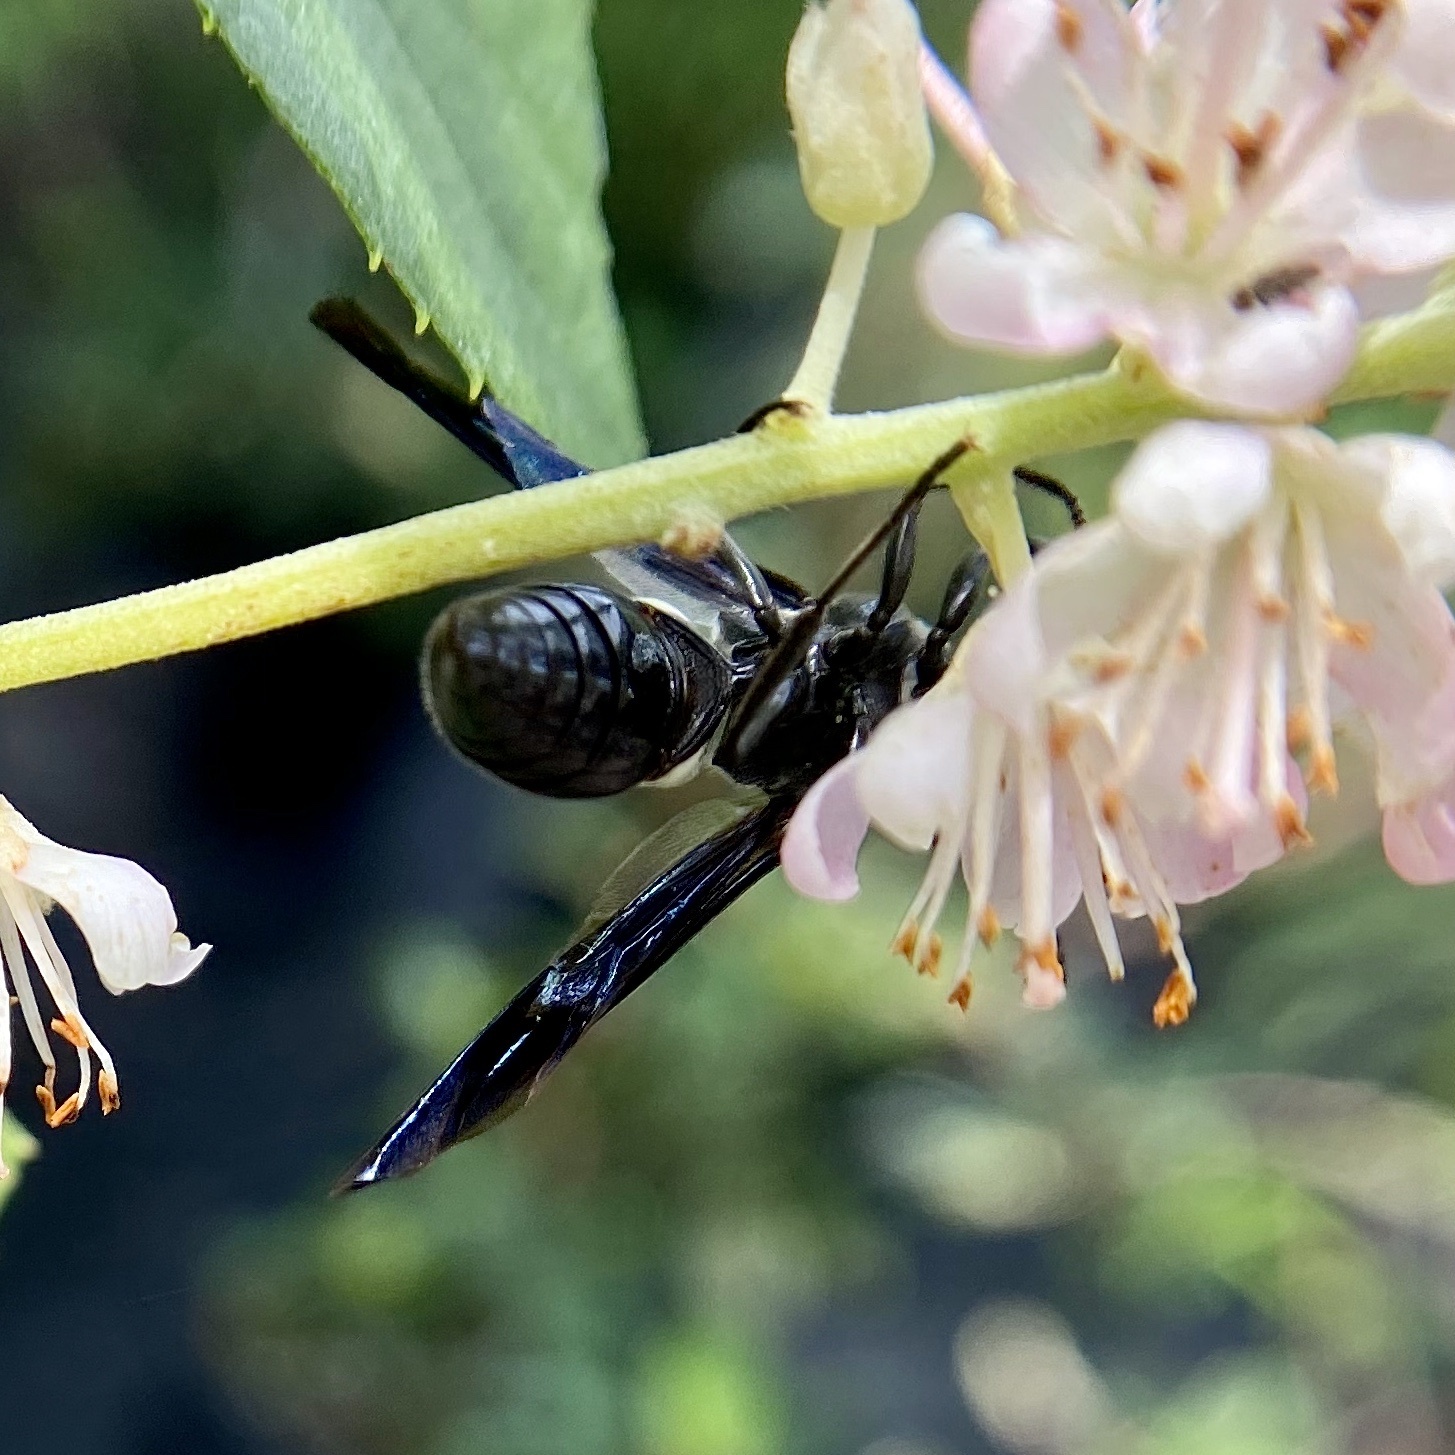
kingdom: Animalia
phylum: Arthropoda
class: Insecta
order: Hymenoptera
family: Eumenidae
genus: Monobia
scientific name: Monobia quadridens
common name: Four-toothed mason wasp
